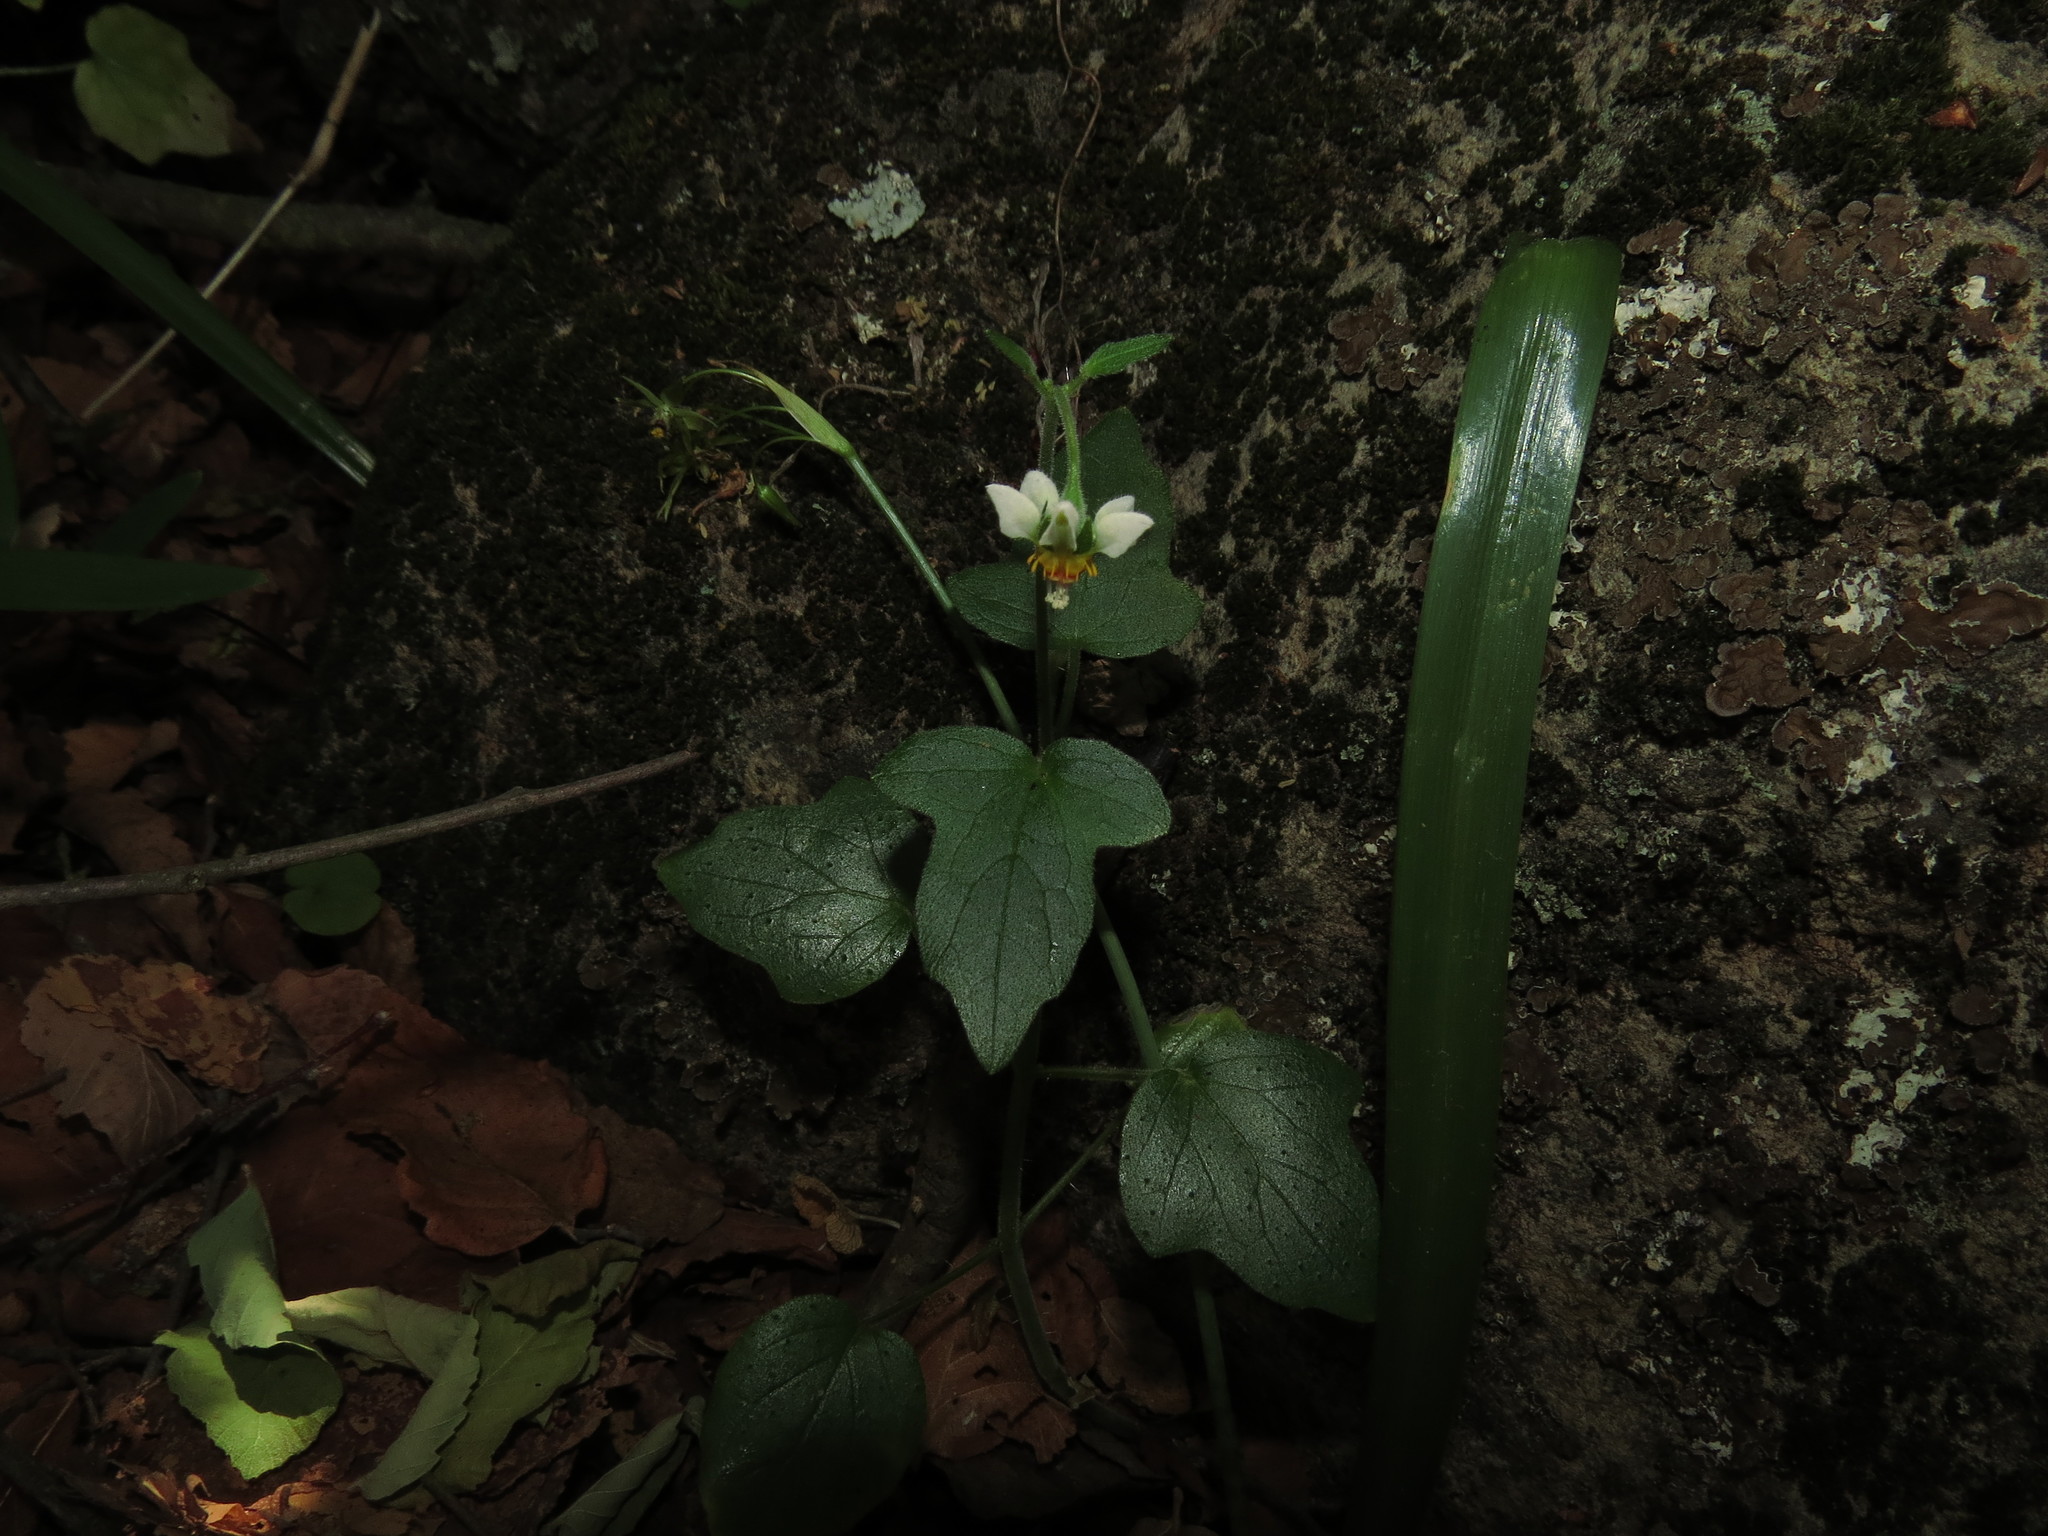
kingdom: Plantae
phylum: Tracheophyta
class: Magnoliopsida
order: Cornales
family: Loasaceae
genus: Loasa
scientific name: Loasa triloba
